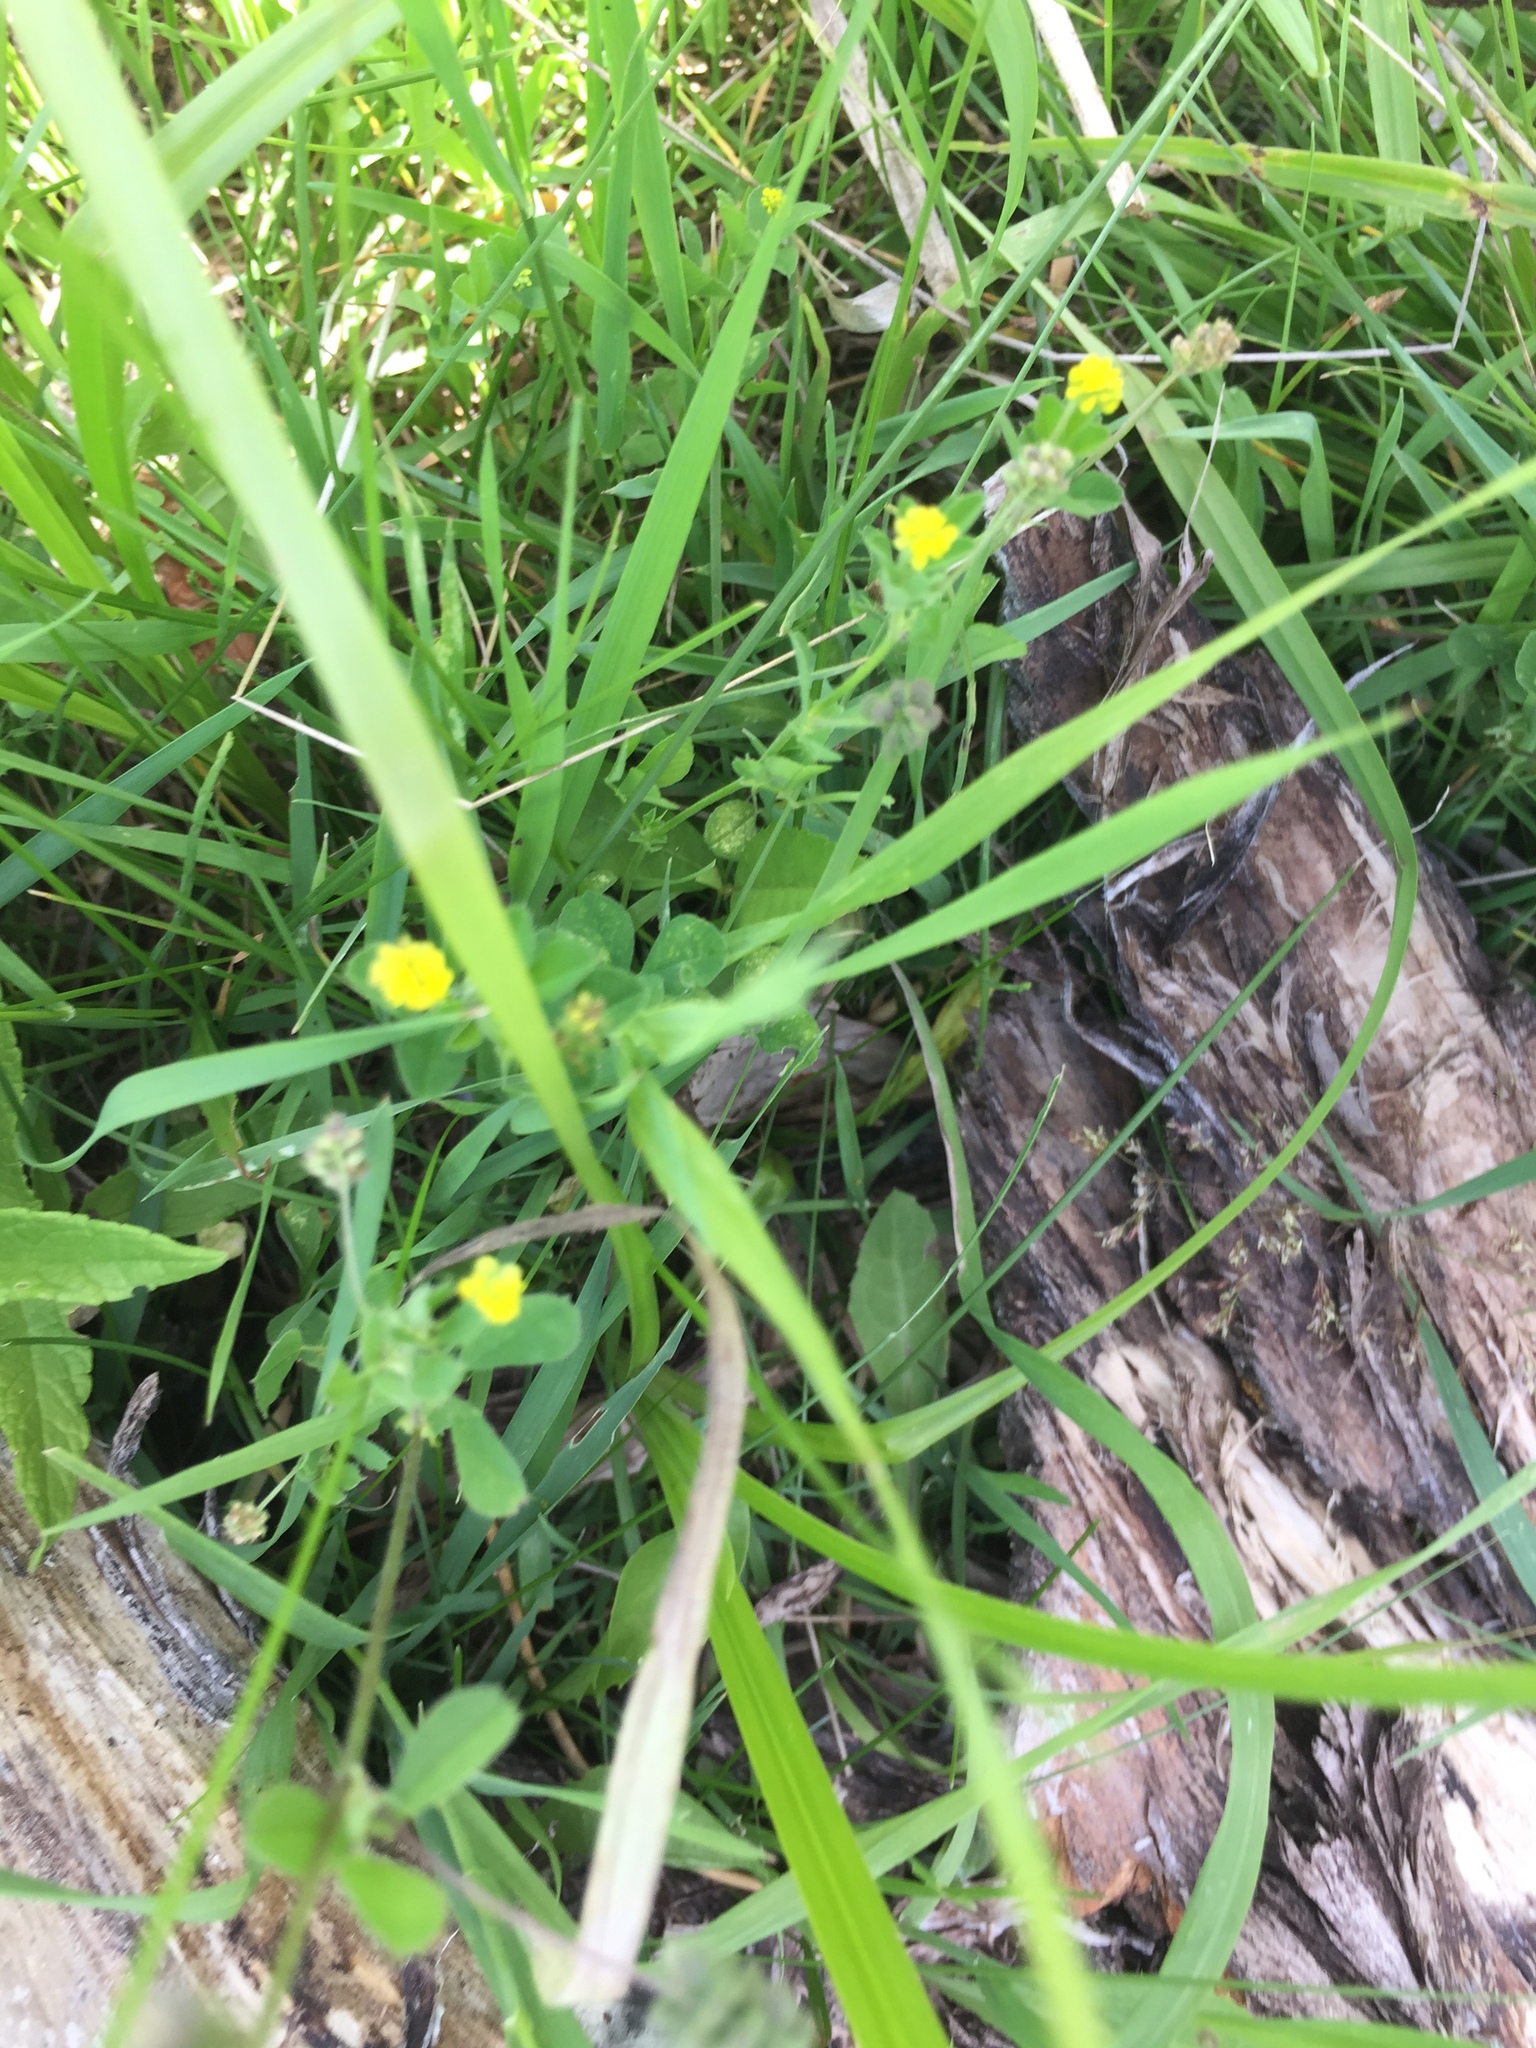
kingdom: Plantae
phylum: Tracheophyta
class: Magnoliopsida
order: Fabales
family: Fabaceae
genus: Medicago
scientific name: Medicago lupulina
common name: Black medick
